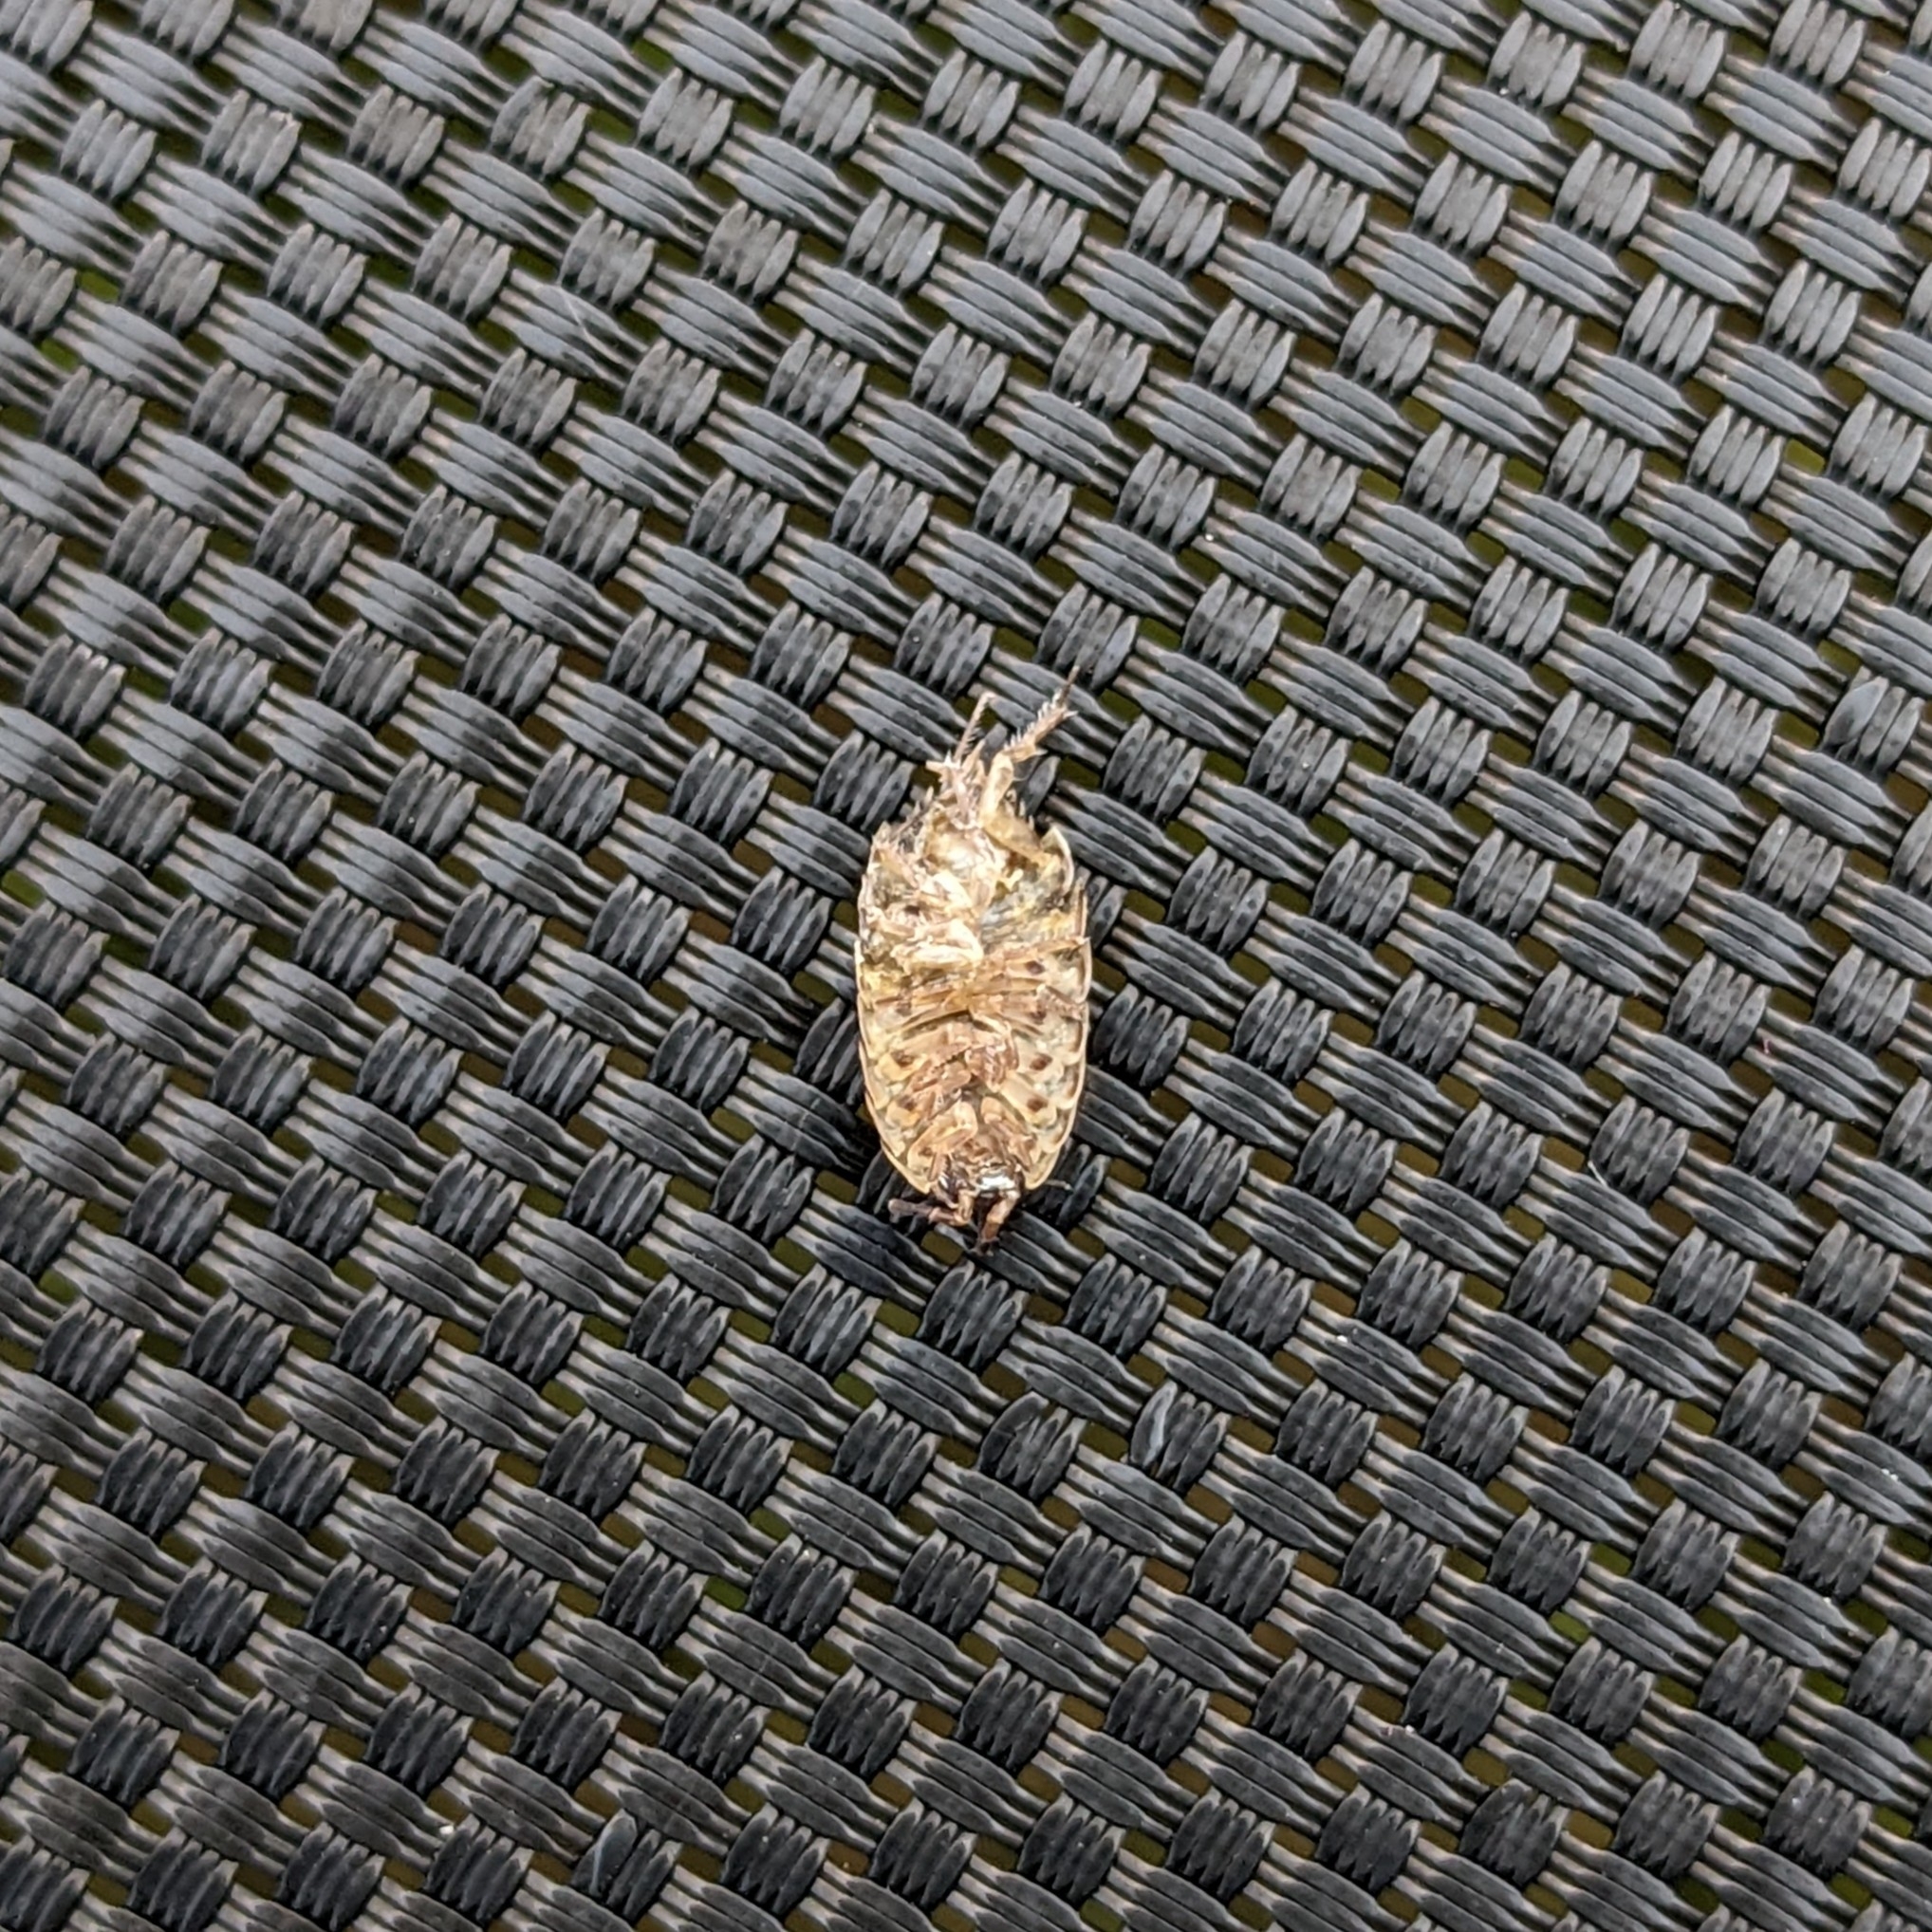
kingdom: Animalia
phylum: Arthropoda
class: Malacostraca
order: Isopoda
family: Philosciidae
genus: Philoscia
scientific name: Philoscia muscorum
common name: Common striped woodlouse
